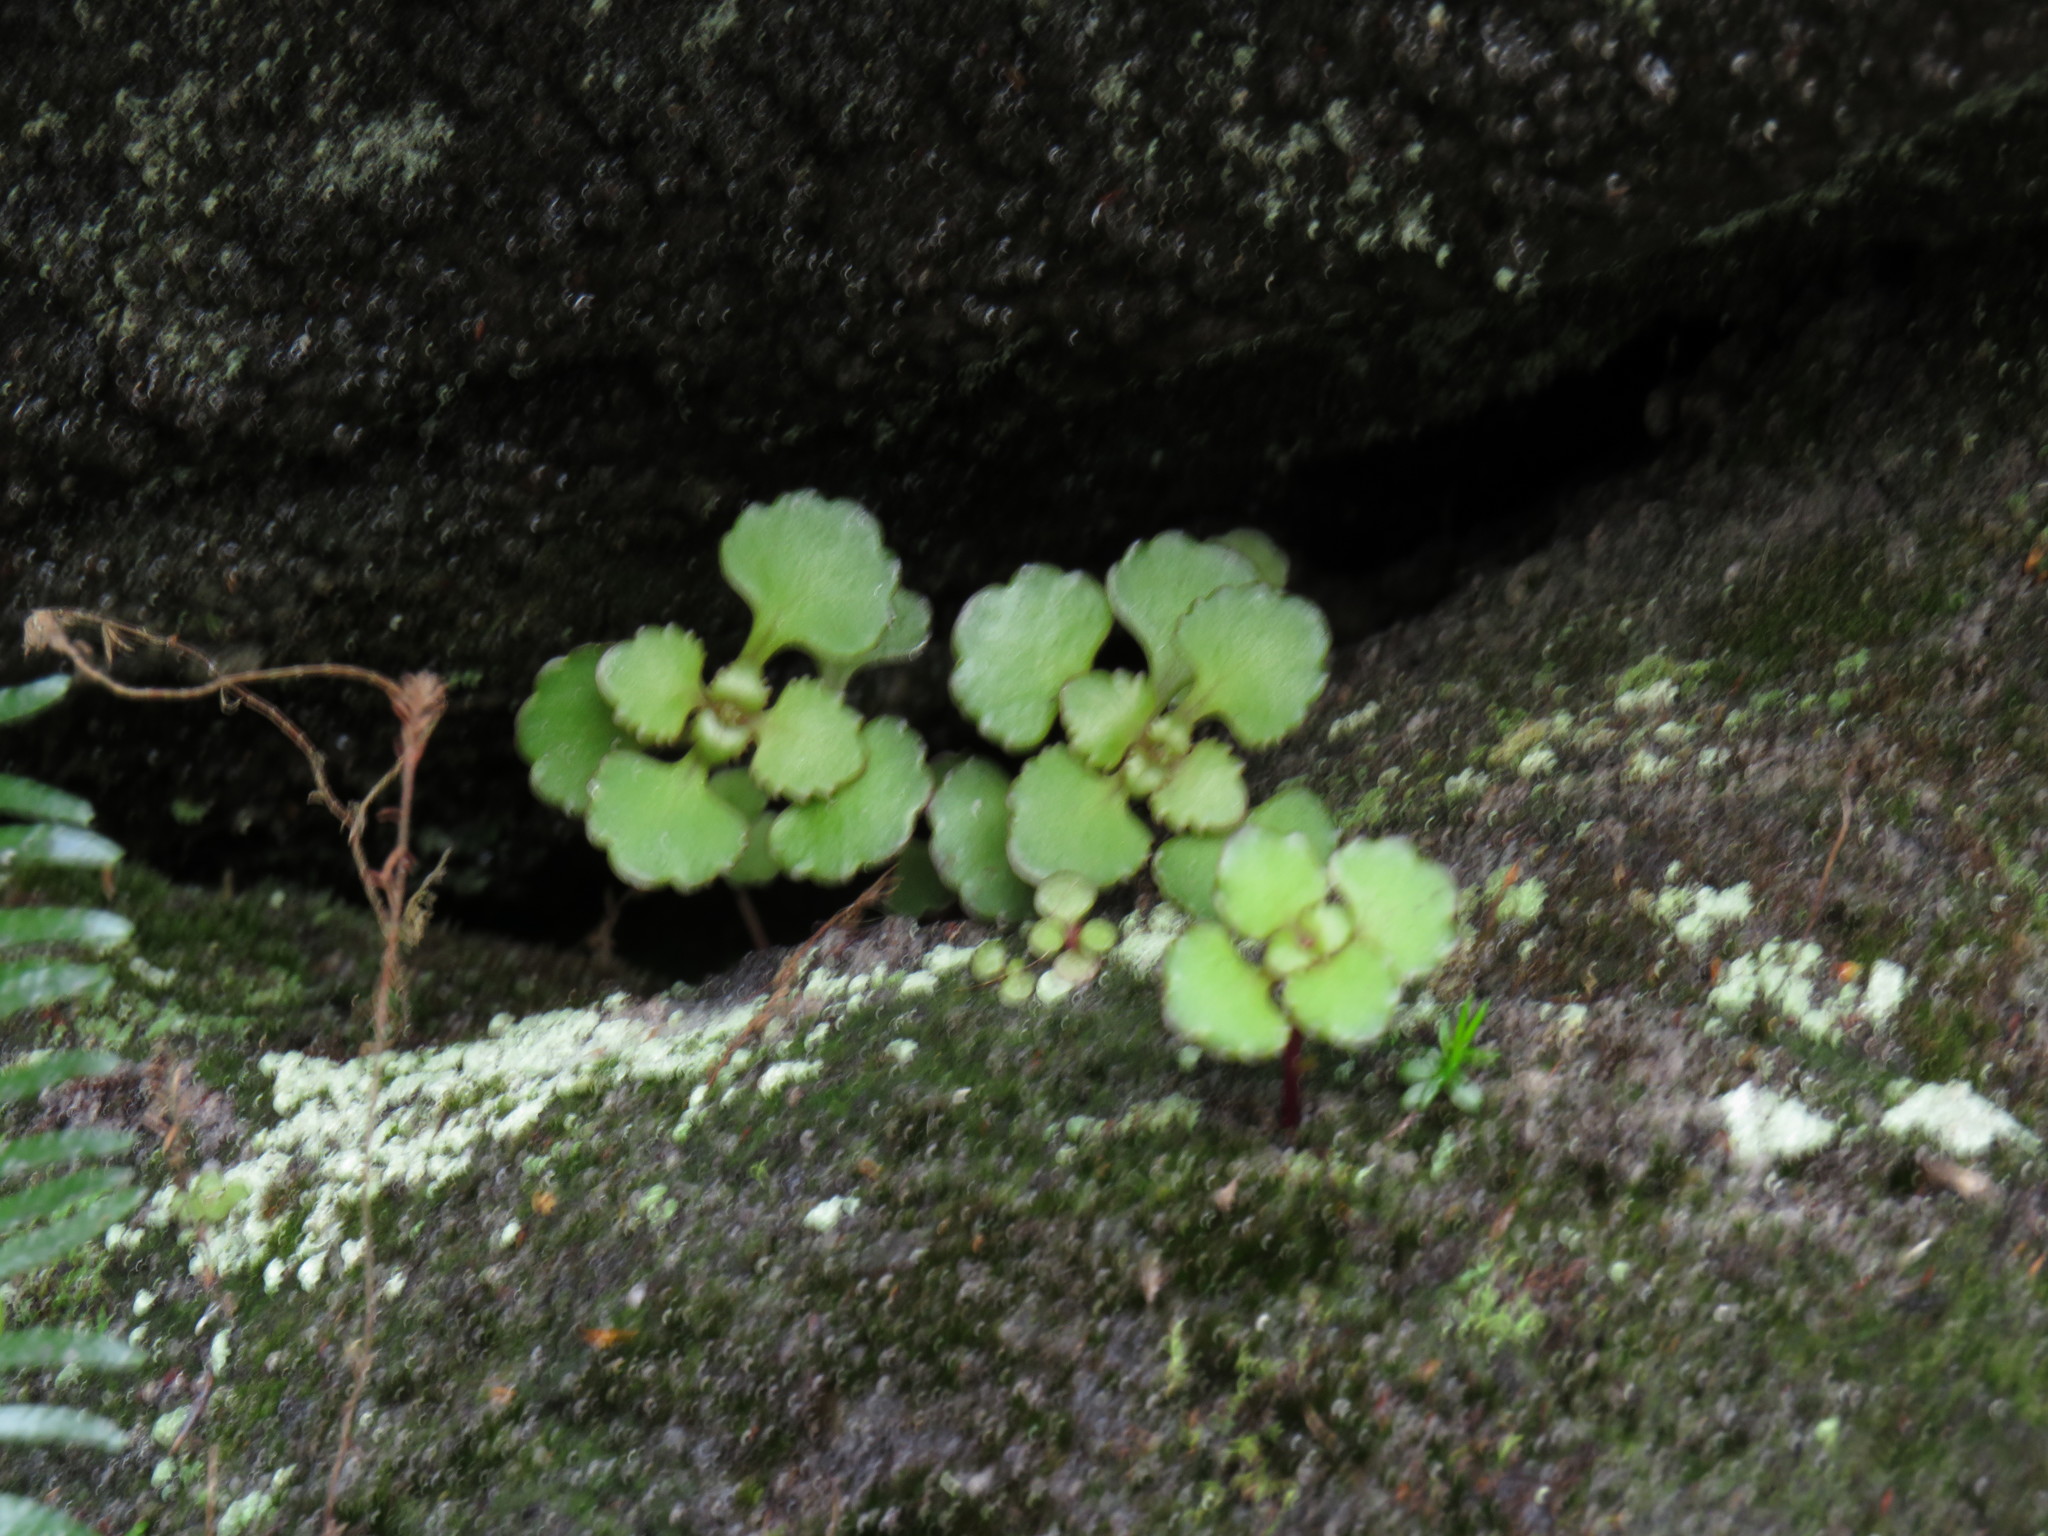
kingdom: Plantae
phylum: Tracheophyta
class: Magnoliopsida
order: Saxifragales
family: Crassulaceae
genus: Crassula
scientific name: Crassula capensis
